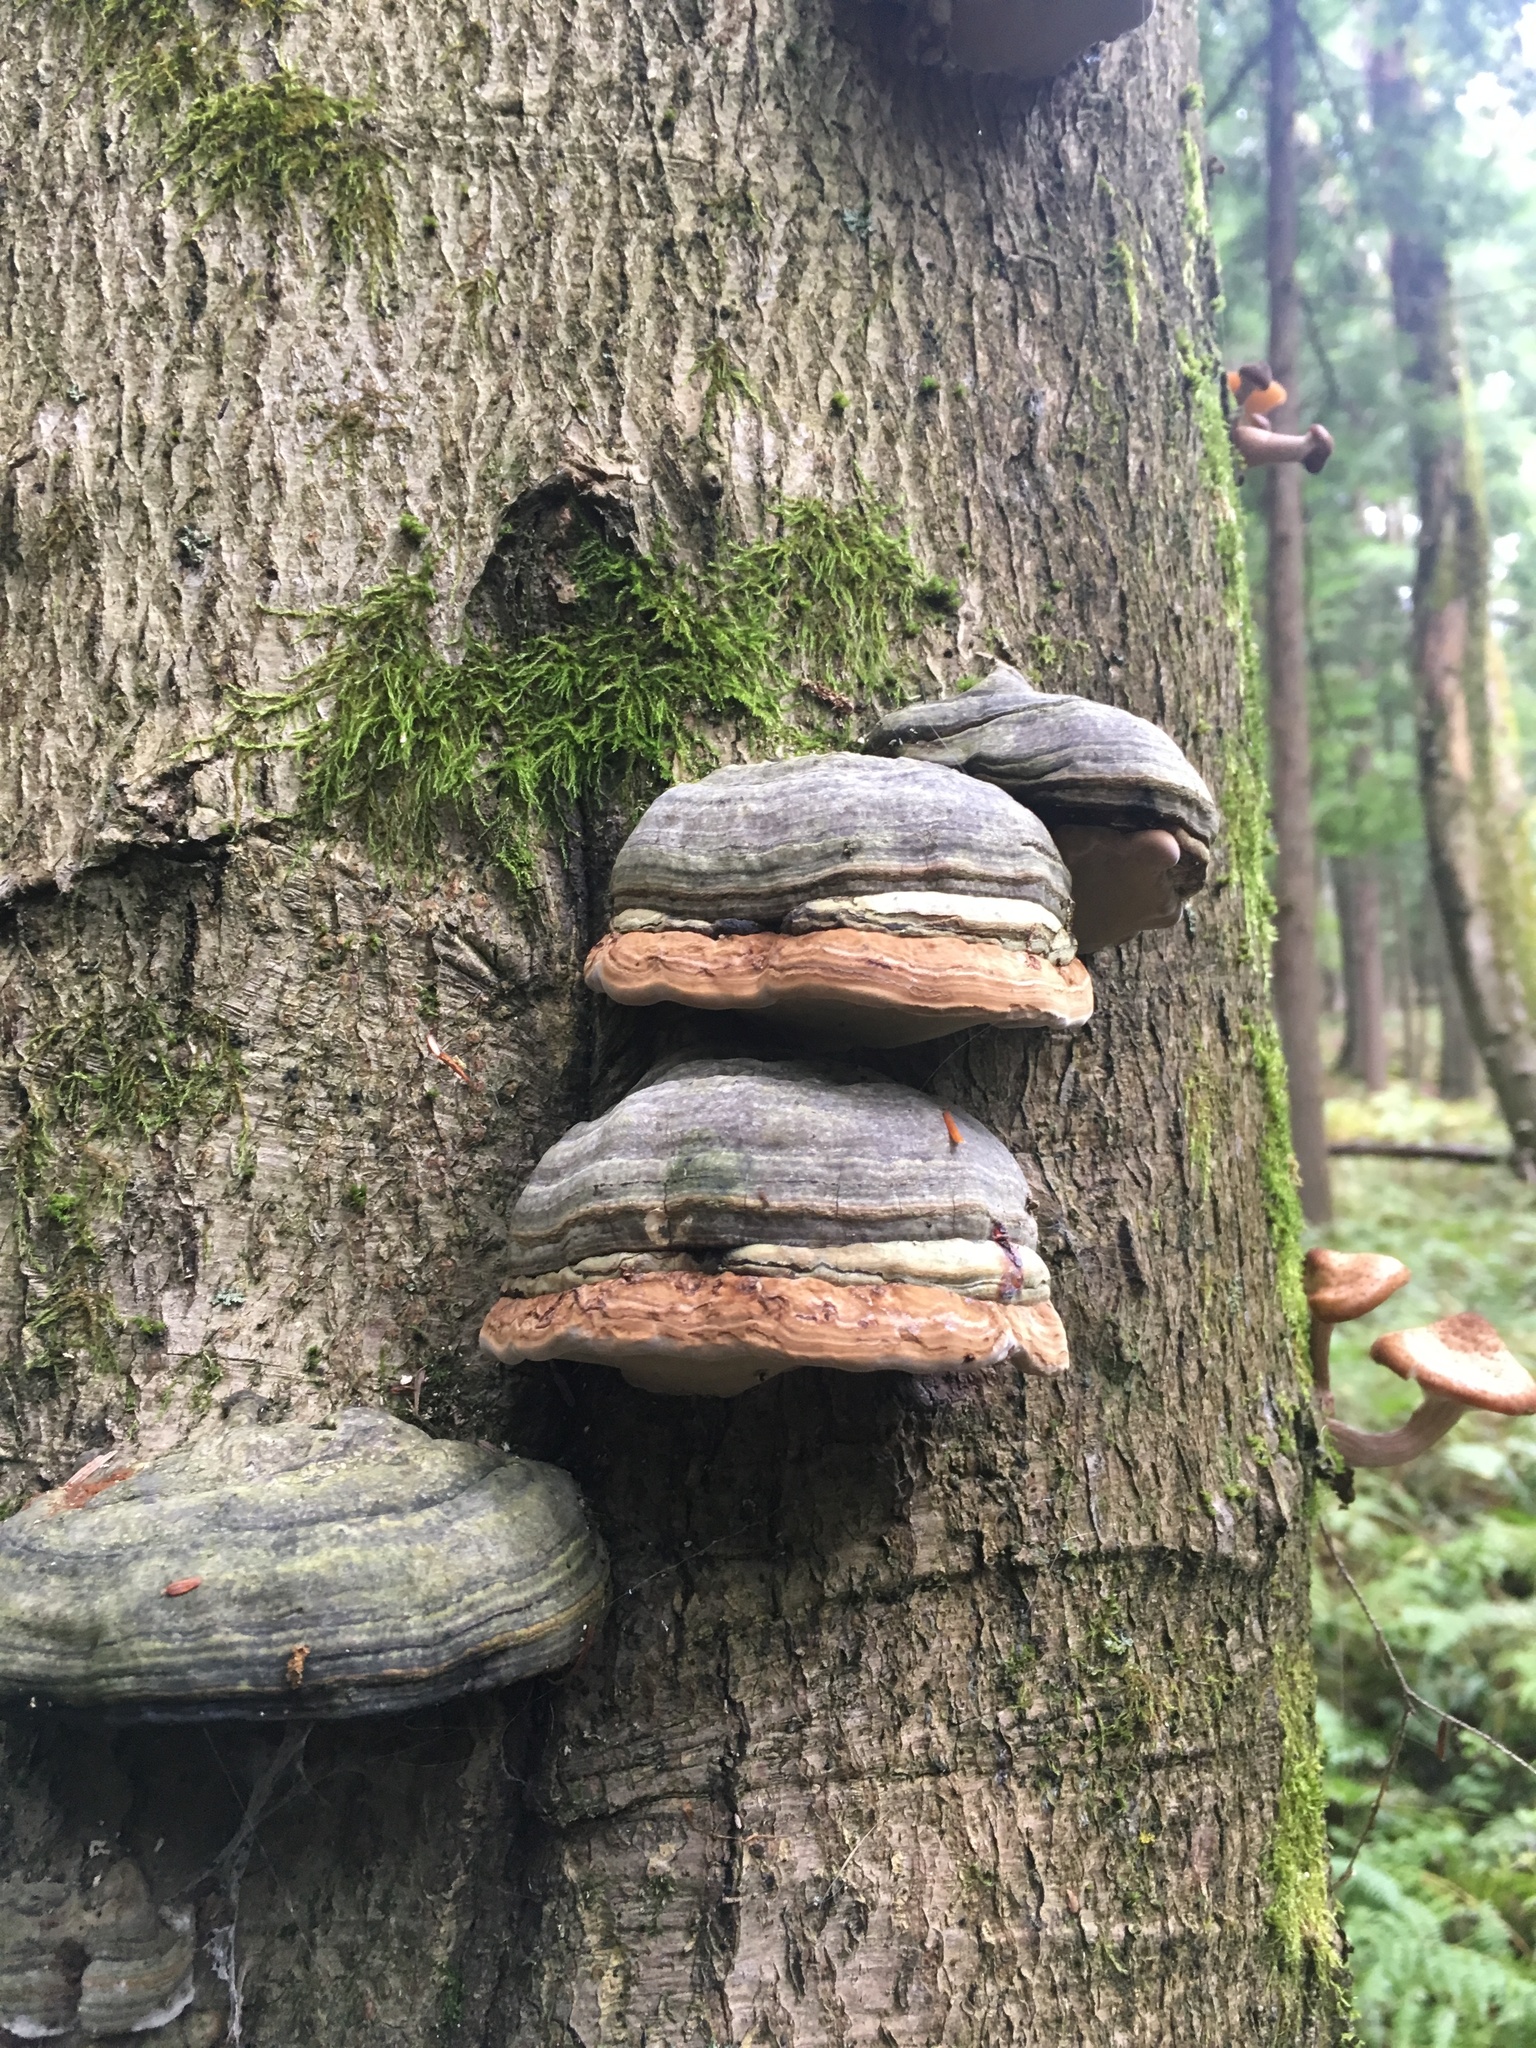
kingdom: Fungi
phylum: Basidiomycota
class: Agaricomycetes
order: Polyporales
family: Polyporaceae
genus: Fomes
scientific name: Fomes fomentarius
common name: Hoof fungus
